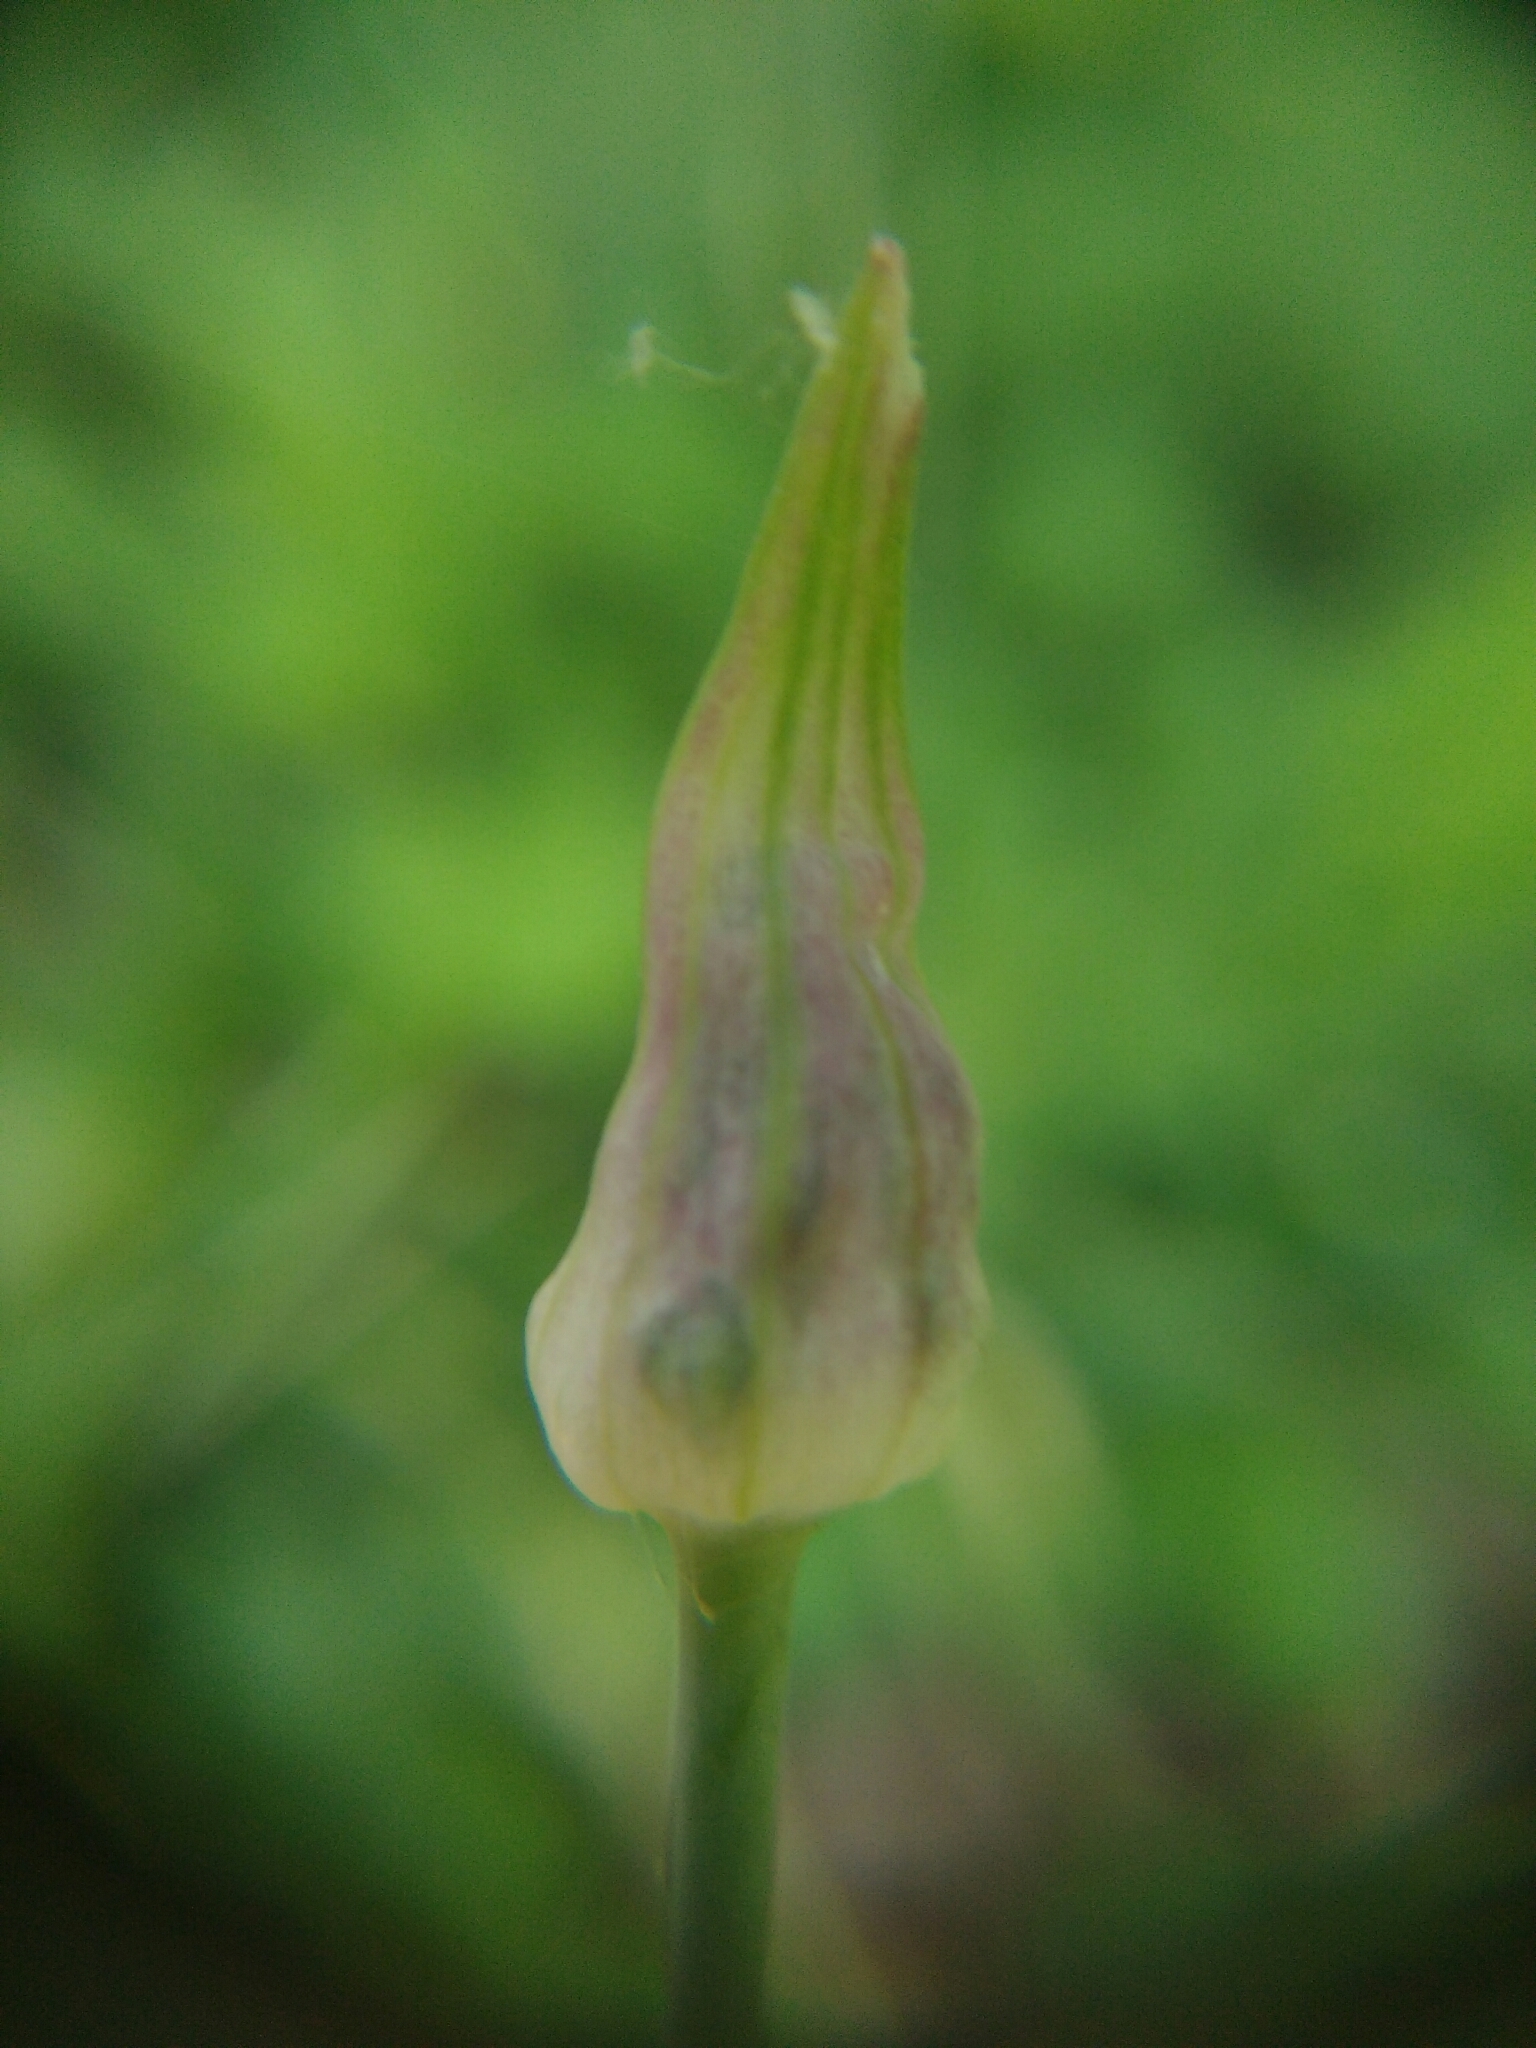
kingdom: Plantae
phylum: Tracheophyta
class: Liliopsida
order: Asparagales
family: Amaryllidaceae
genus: Allium
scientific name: Allium scorodoprasum
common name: Sand leek
